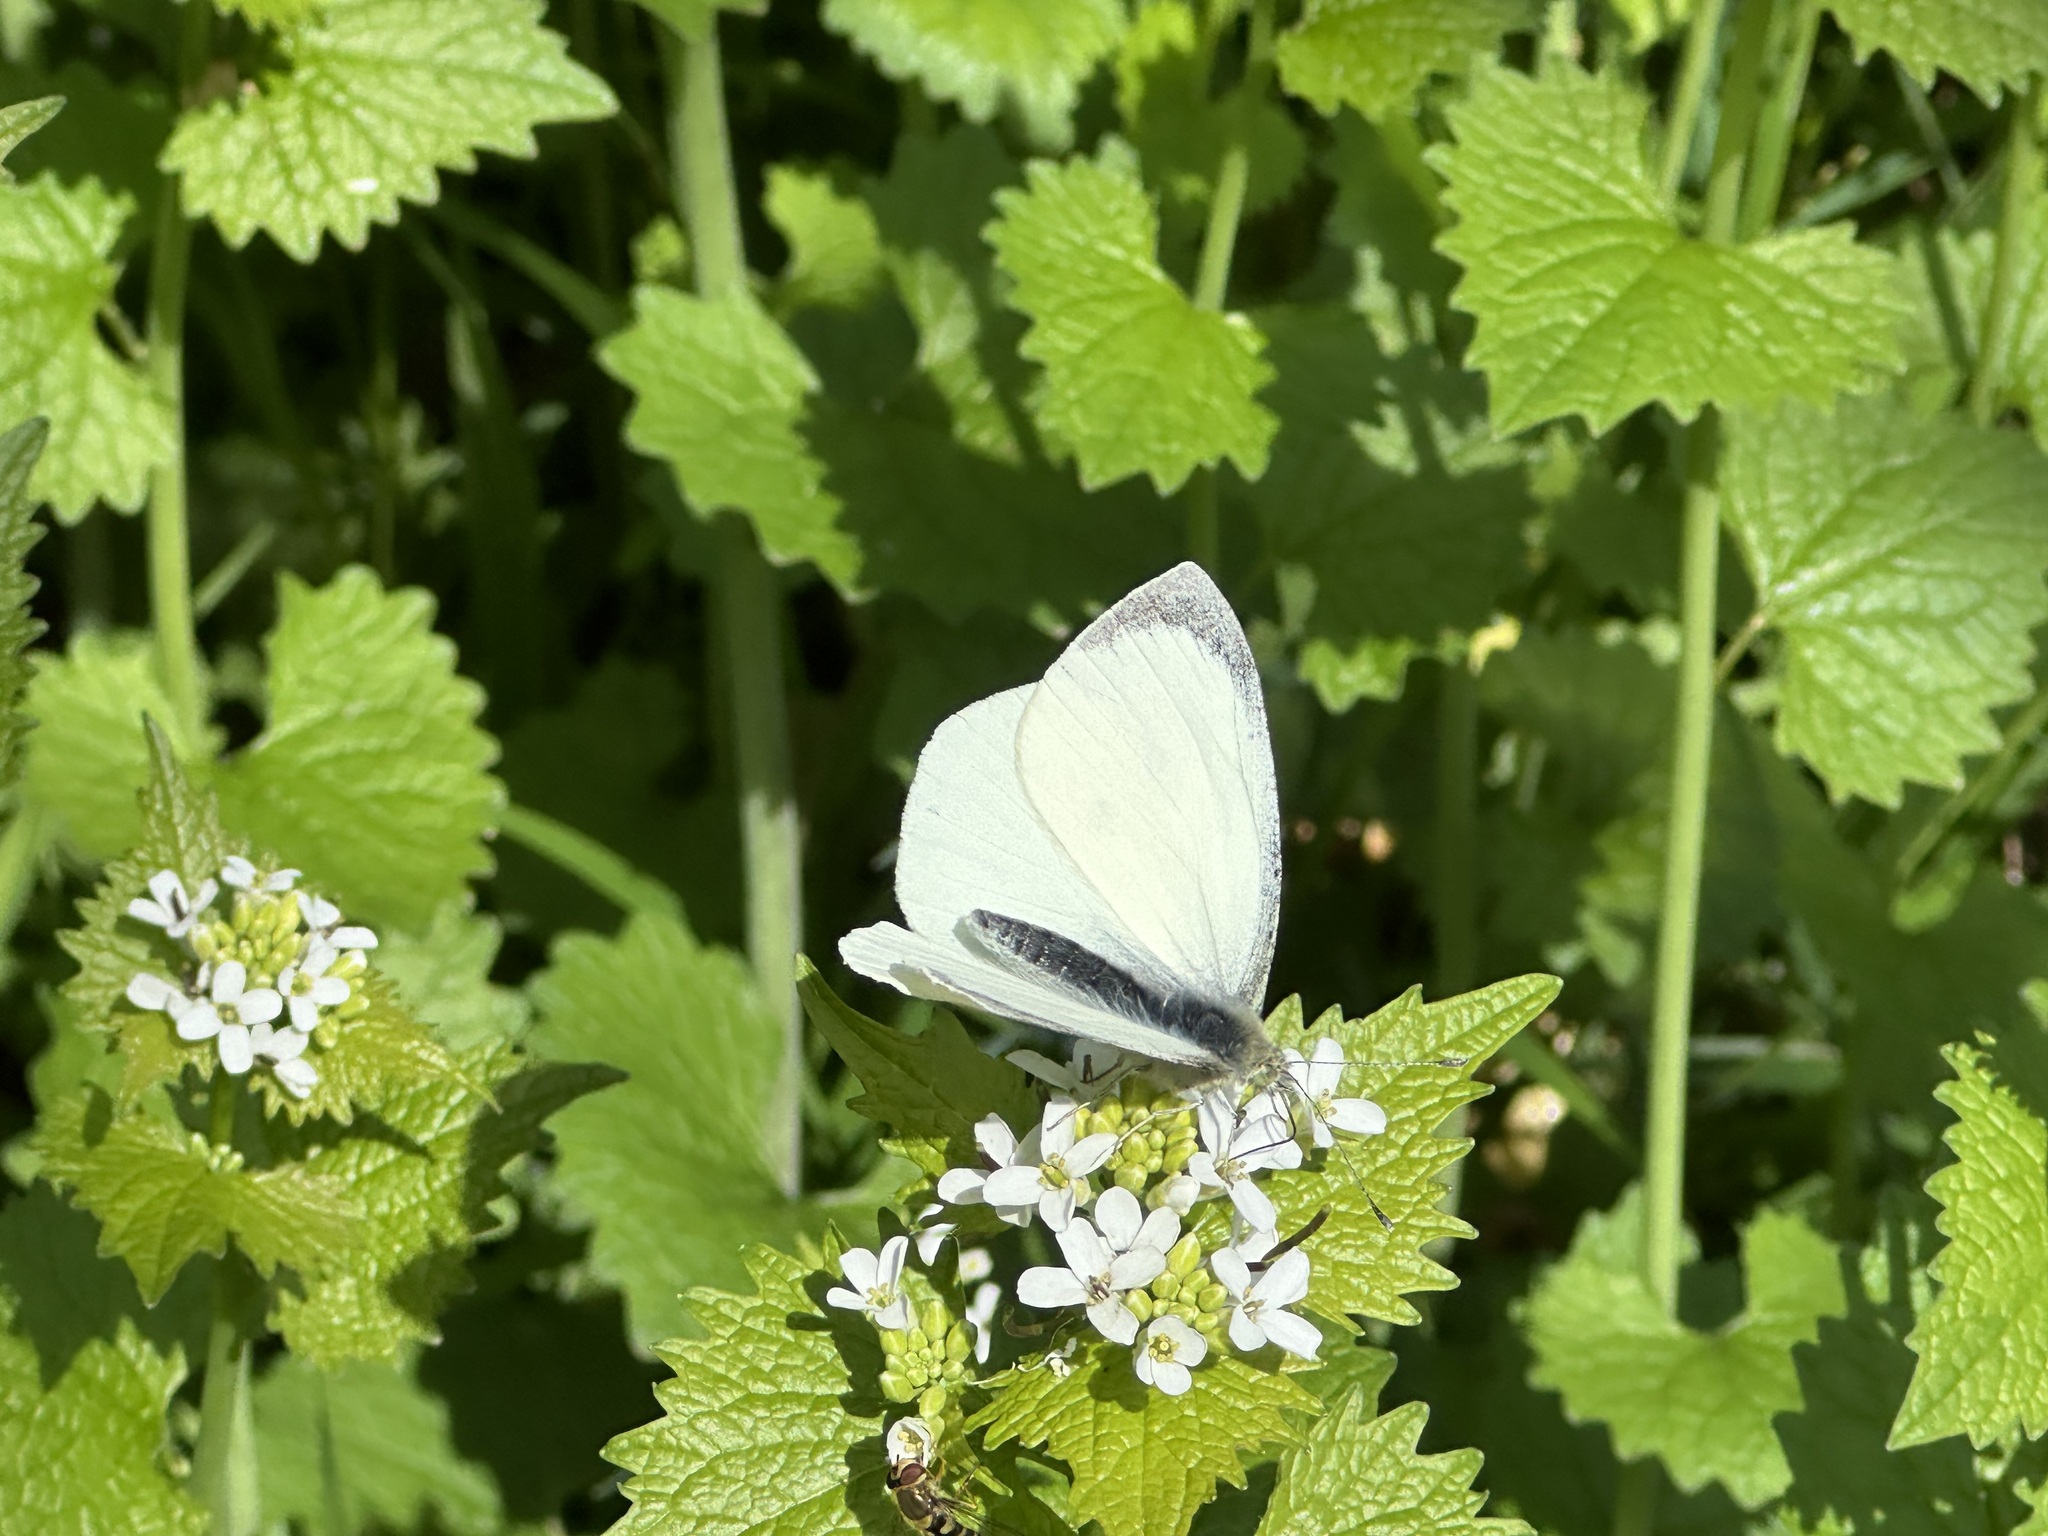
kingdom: Animalia
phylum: Arthropoda
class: Insecta
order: Lepidoptera
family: Pieridae
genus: Pieris
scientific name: Pieris brassicae
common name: Large white
